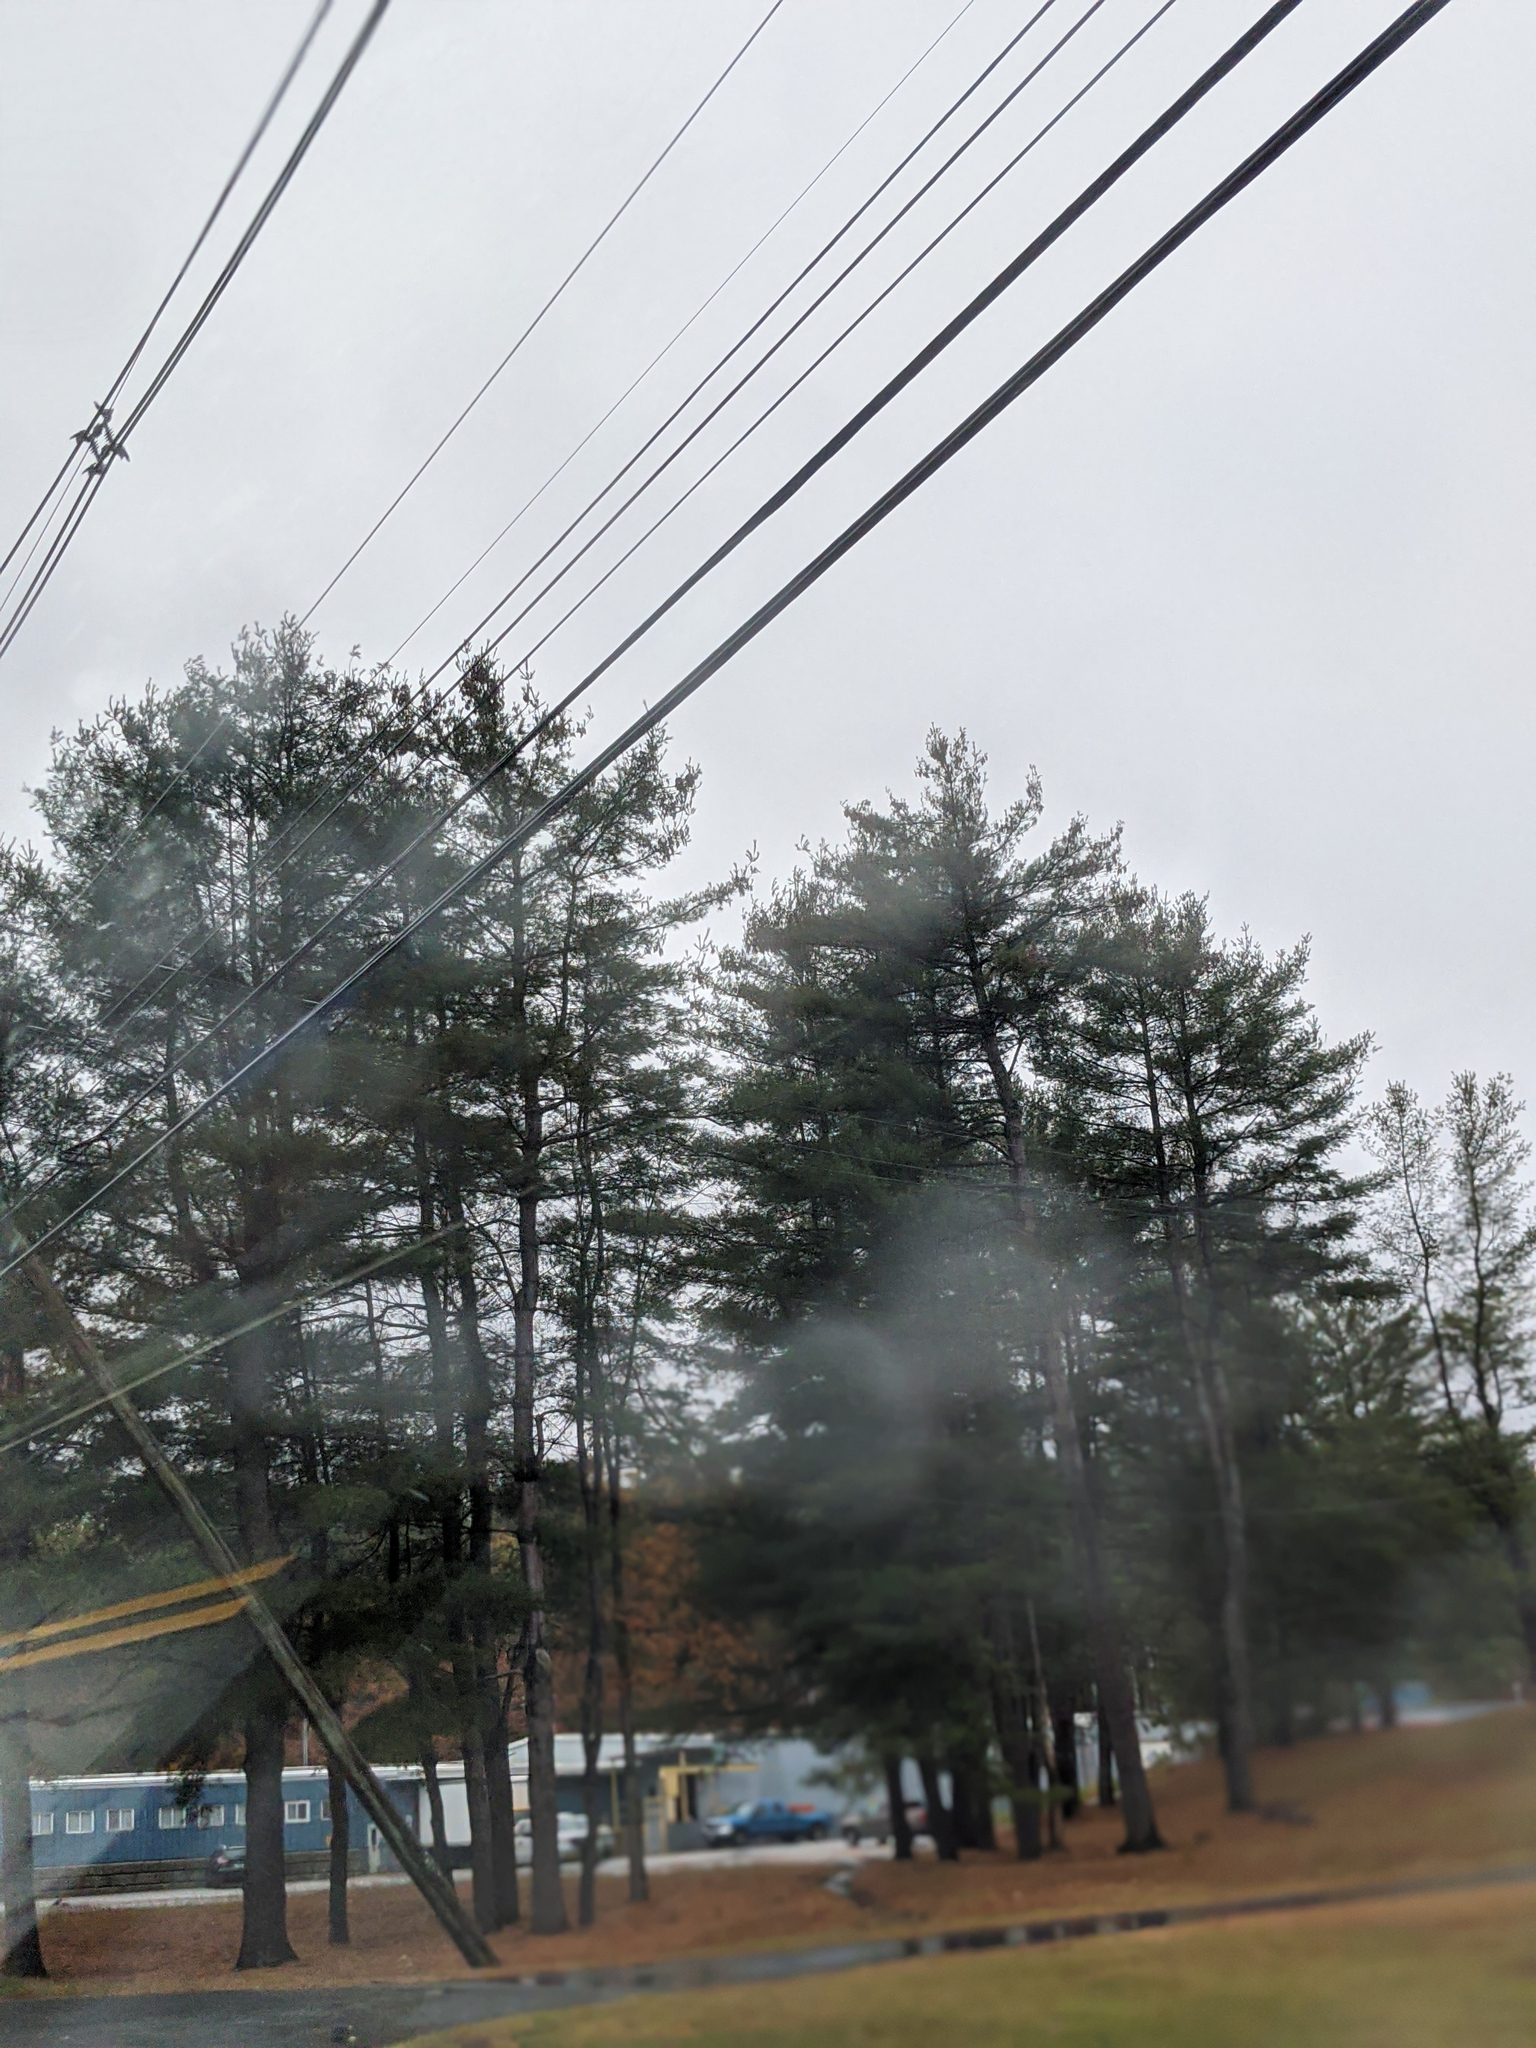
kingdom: Plantae
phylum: Tracheophyta
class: Pinopsida
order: Pinales
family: Pinaceae
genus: Pinus
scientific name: Pinus strobus
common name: Weymouth pine
